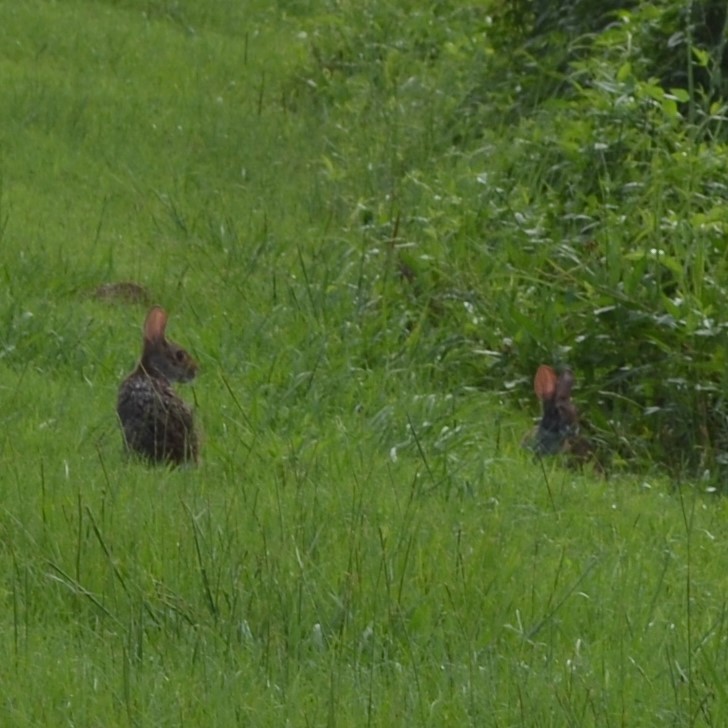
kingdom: Animalia
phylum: Chordata
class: Mammalia
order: Lagomorpha
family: Leporidae
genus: Sylvilagus
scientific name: Sylvilagus aquaticus
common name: Swamp rabbit
